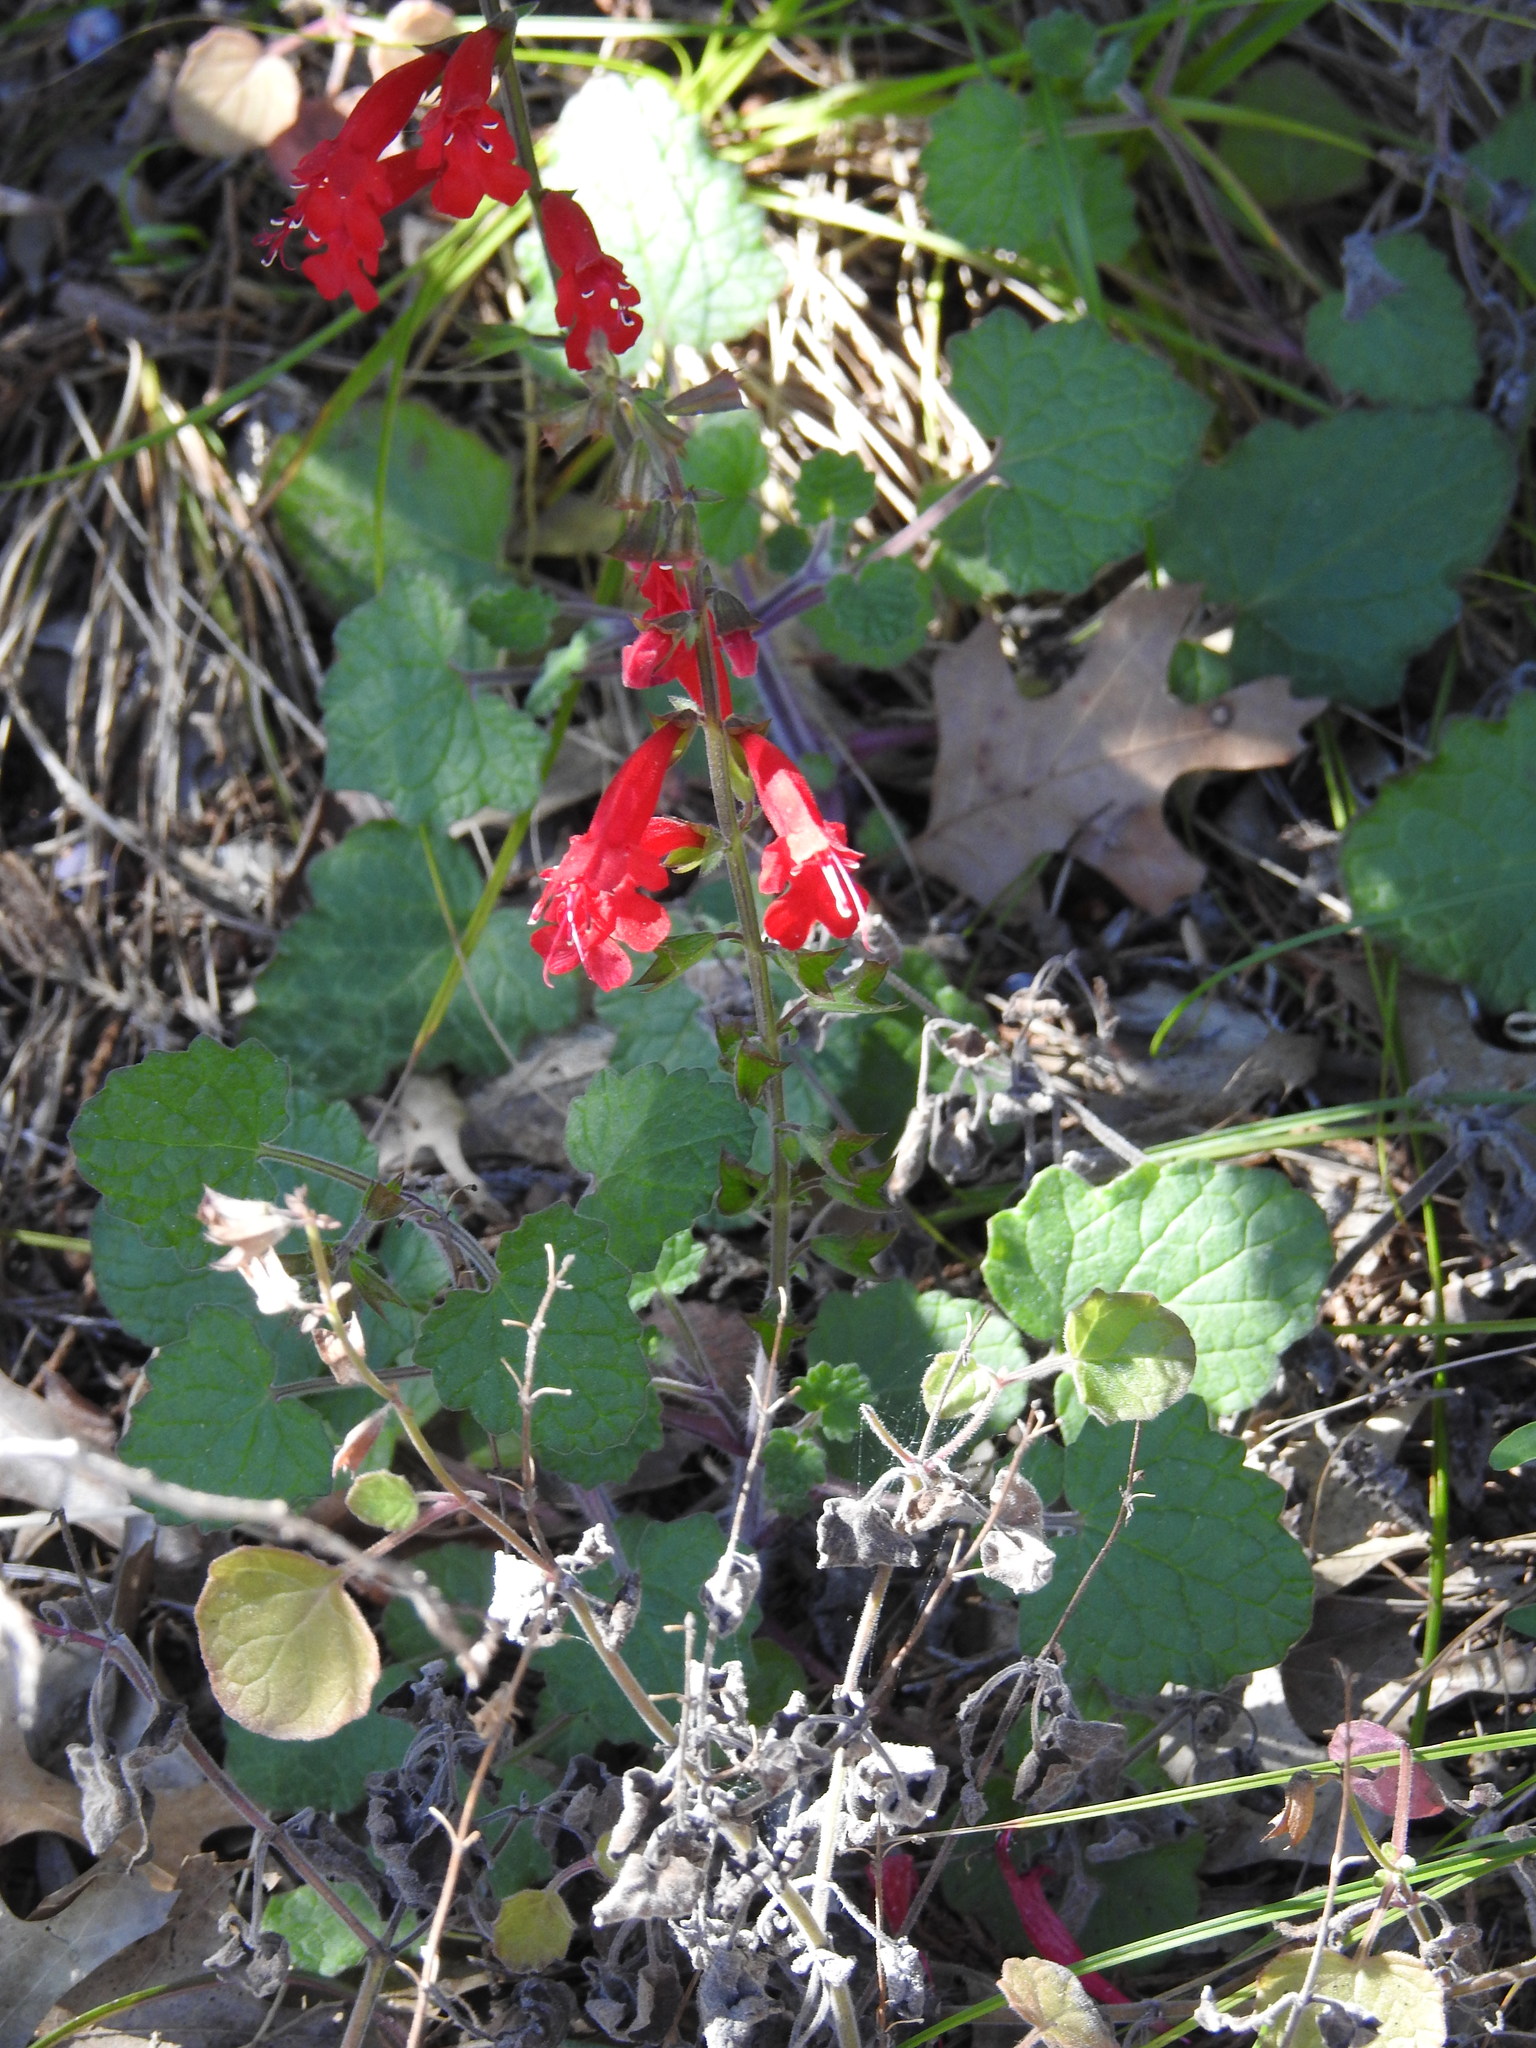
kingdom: Plantae
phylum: Tracheophyta
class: Magnoliopsida
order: Lamiales
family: Lamiaceae
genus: Salvia
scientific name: Salvia roemeriana
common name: Cedar sage
